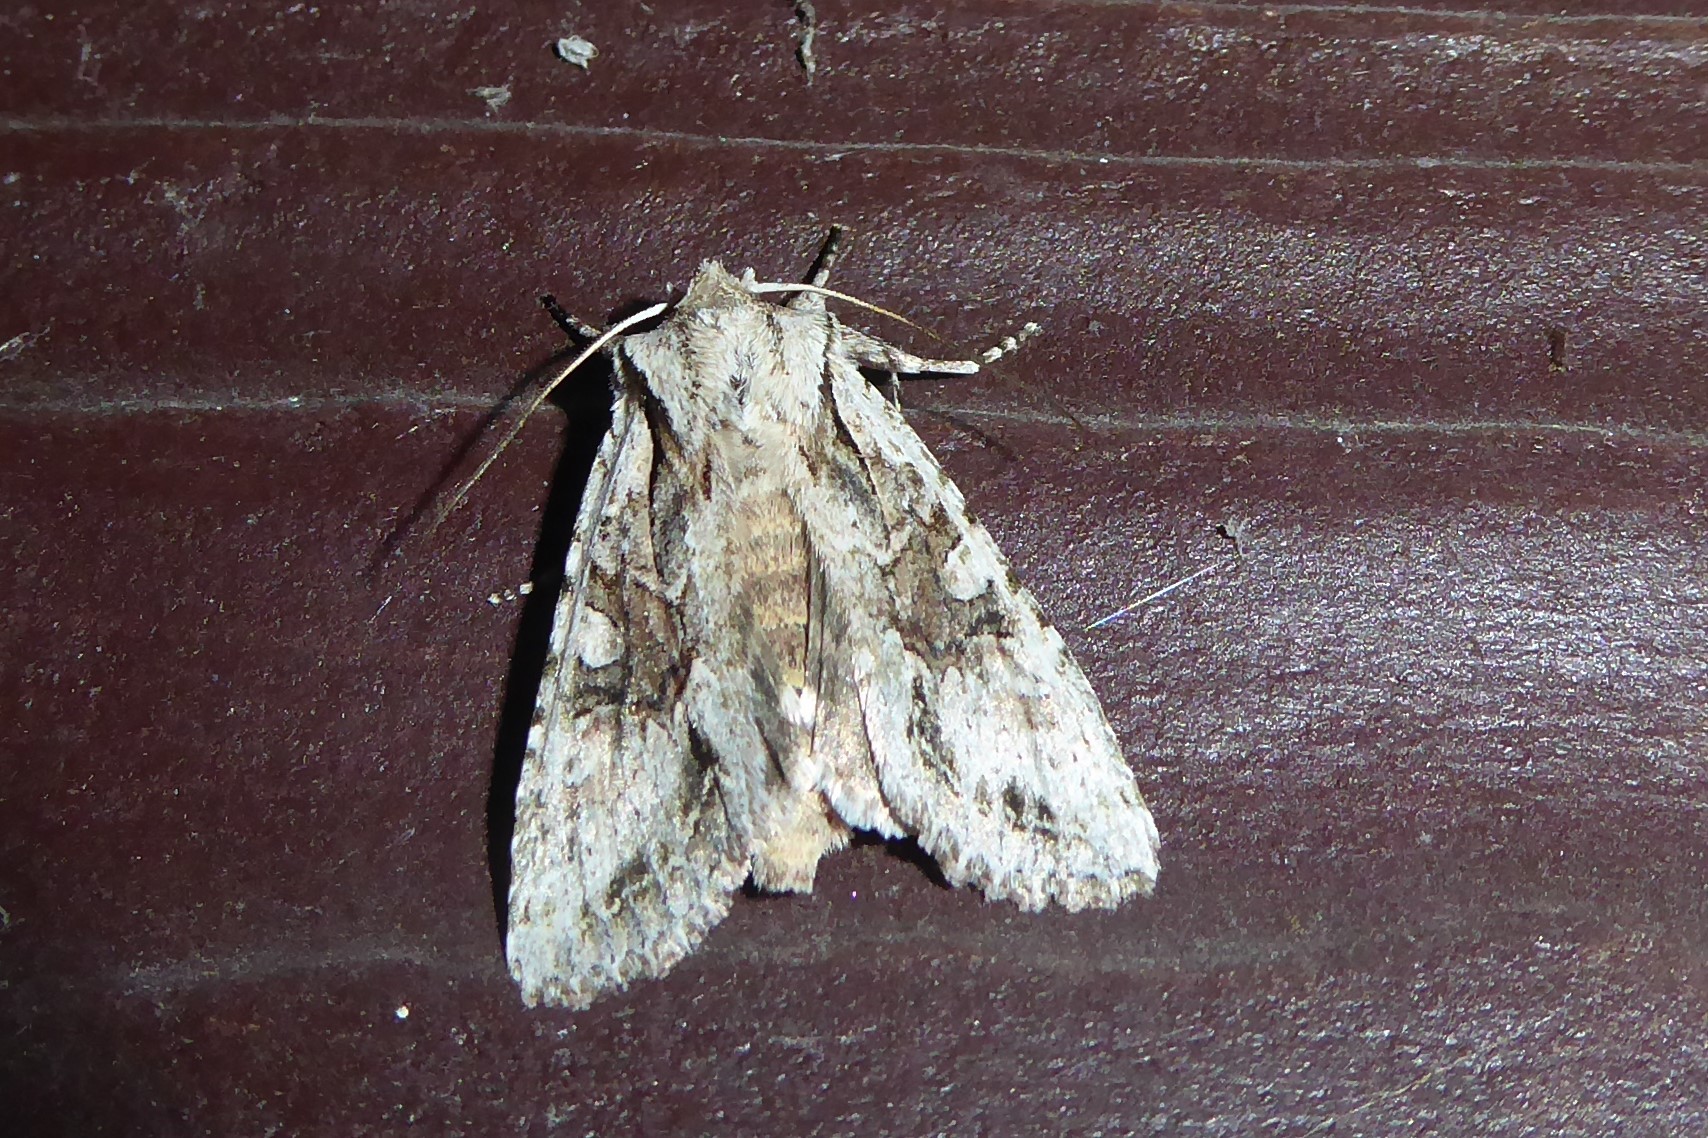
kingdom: Animalia
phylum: Arthropoda
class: Insecta
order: Lepidoptera
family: Noctuidae
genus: Ichneutica
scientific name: Ichneutica mutans
